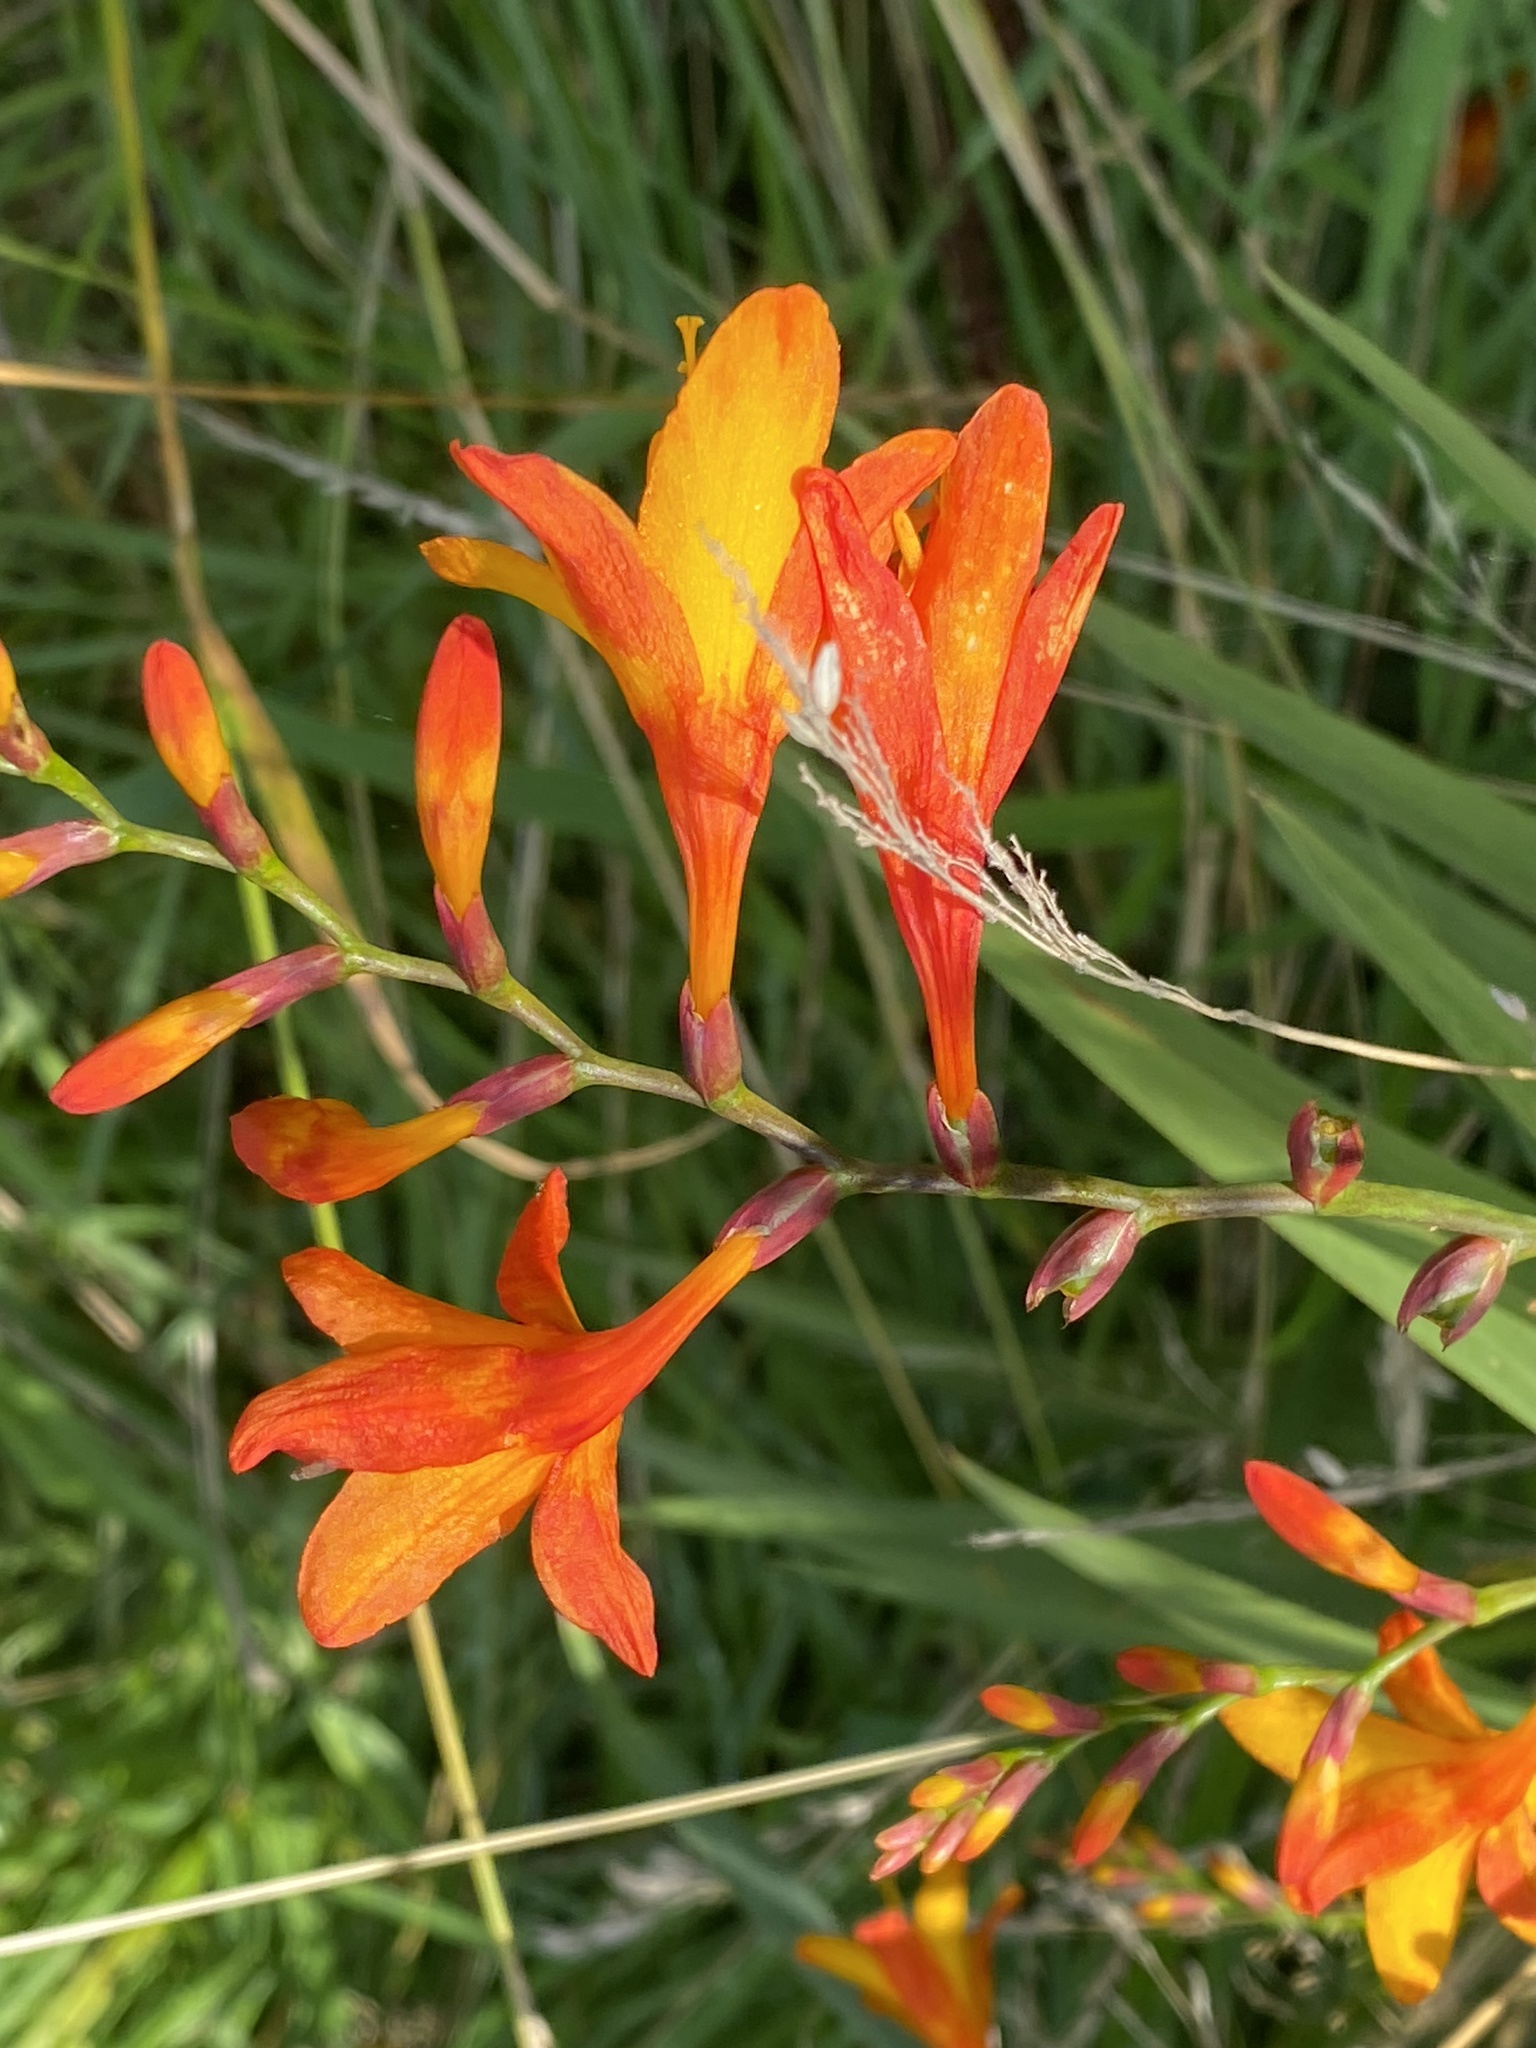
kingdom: Plantae
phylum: Tracheophyta
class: Liliopsida
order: Asparagales
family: Iridaceae
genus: Crocosmia
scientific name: Crocosmia crocosmiiflora
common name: Montbretia
